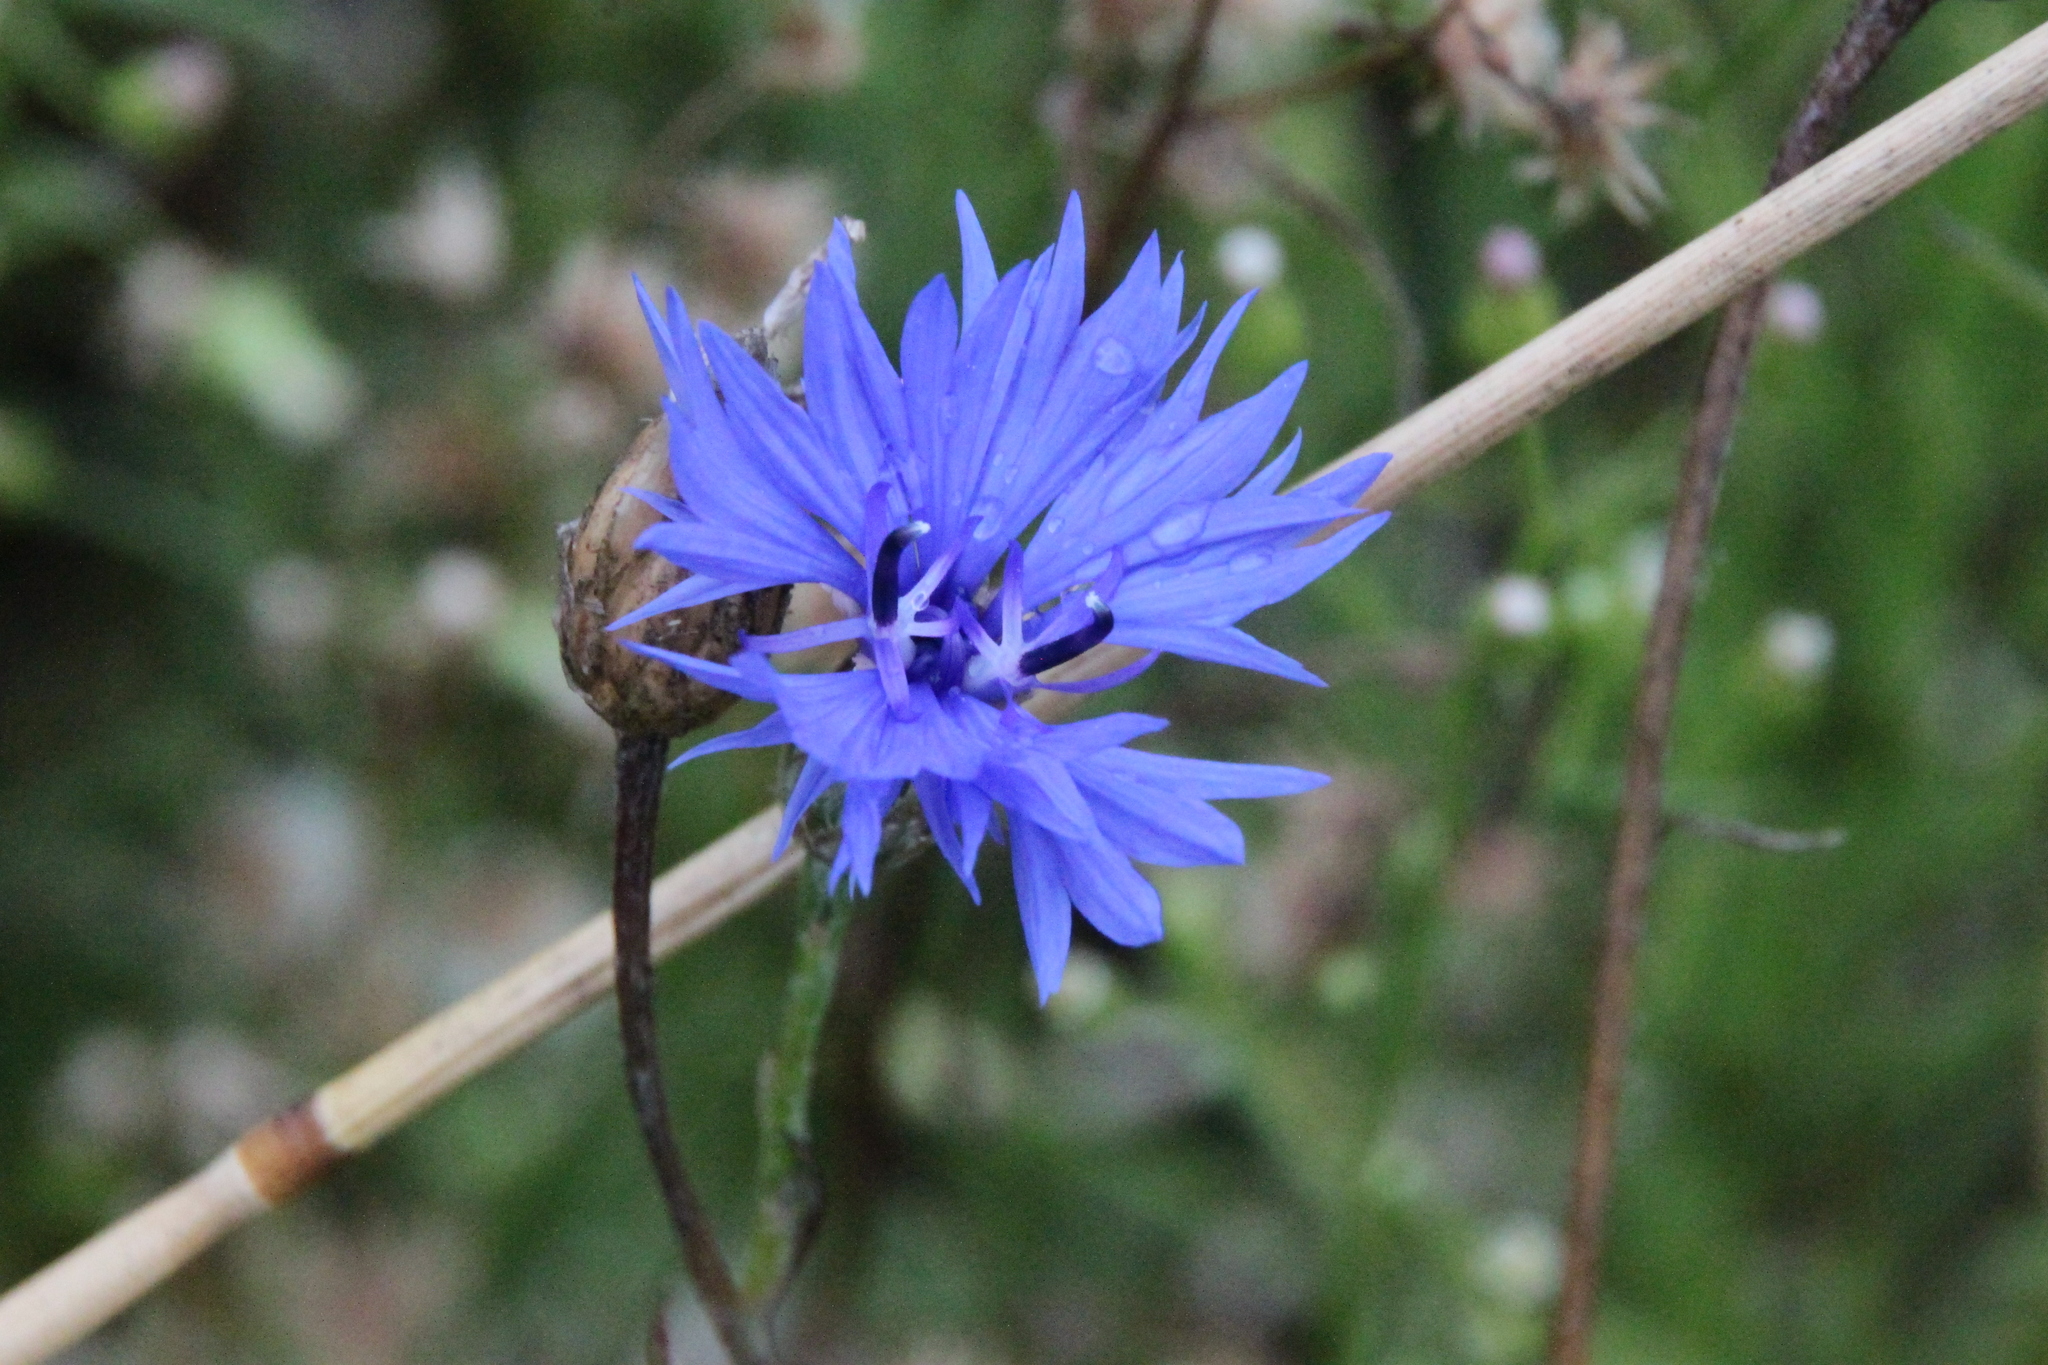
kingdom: Plantae
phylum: Tracheophyta
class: Magnoliopsida
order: Asterales
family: Asteraceae
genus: Centaurea
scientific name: Centaurea cyanus
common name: Cornflower
